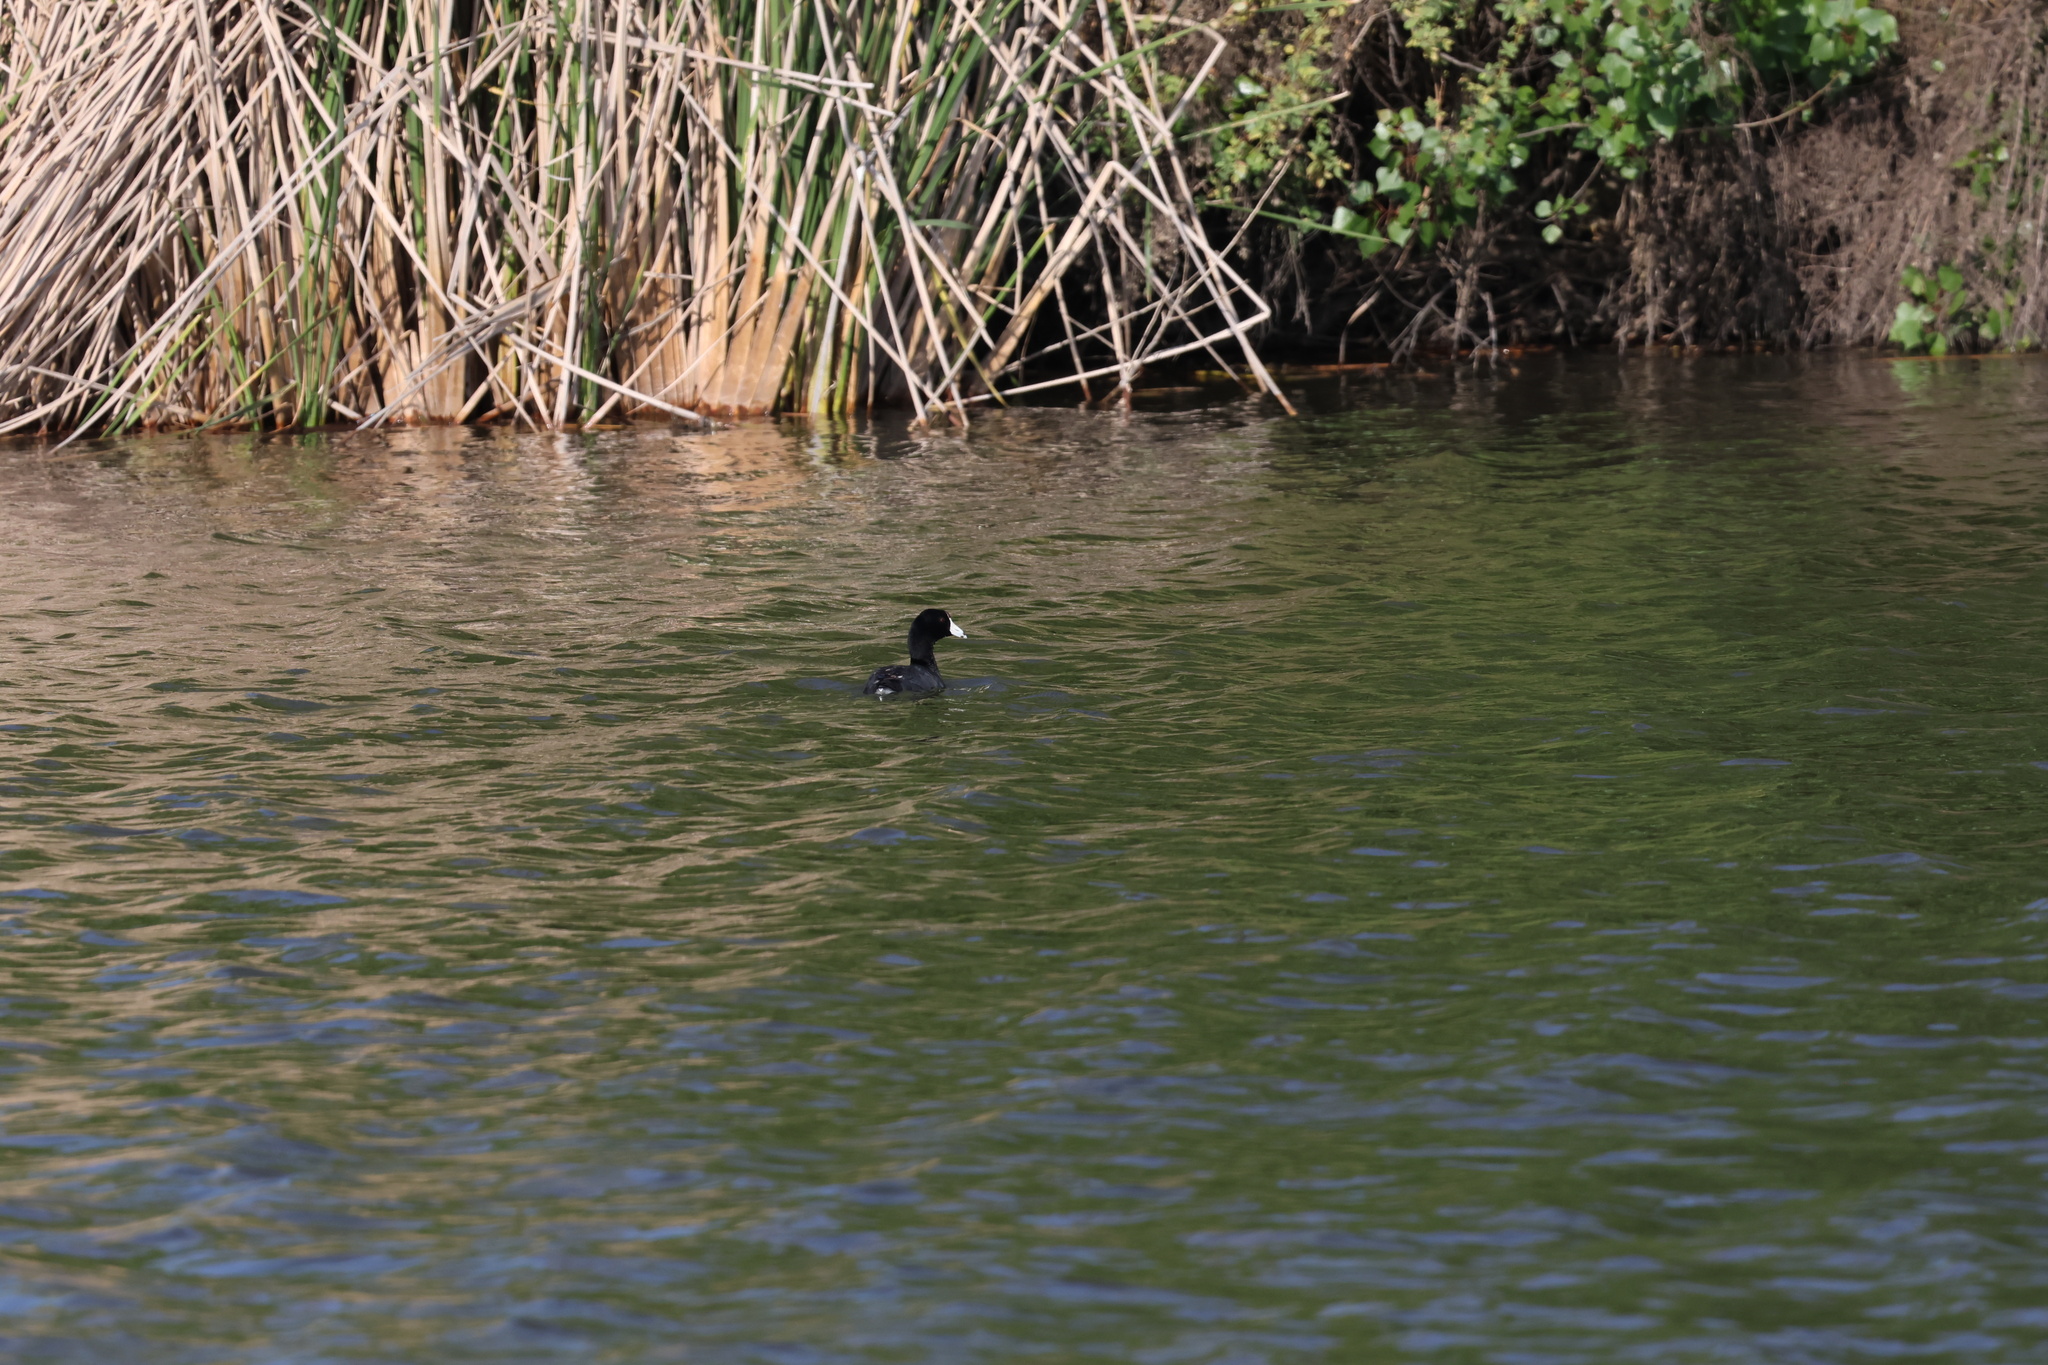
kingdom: Animalia
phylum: Chordata
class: Aves
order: Gruiformes
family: Rallidae
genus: Fulica
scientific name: Fulica americana
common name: American coot
